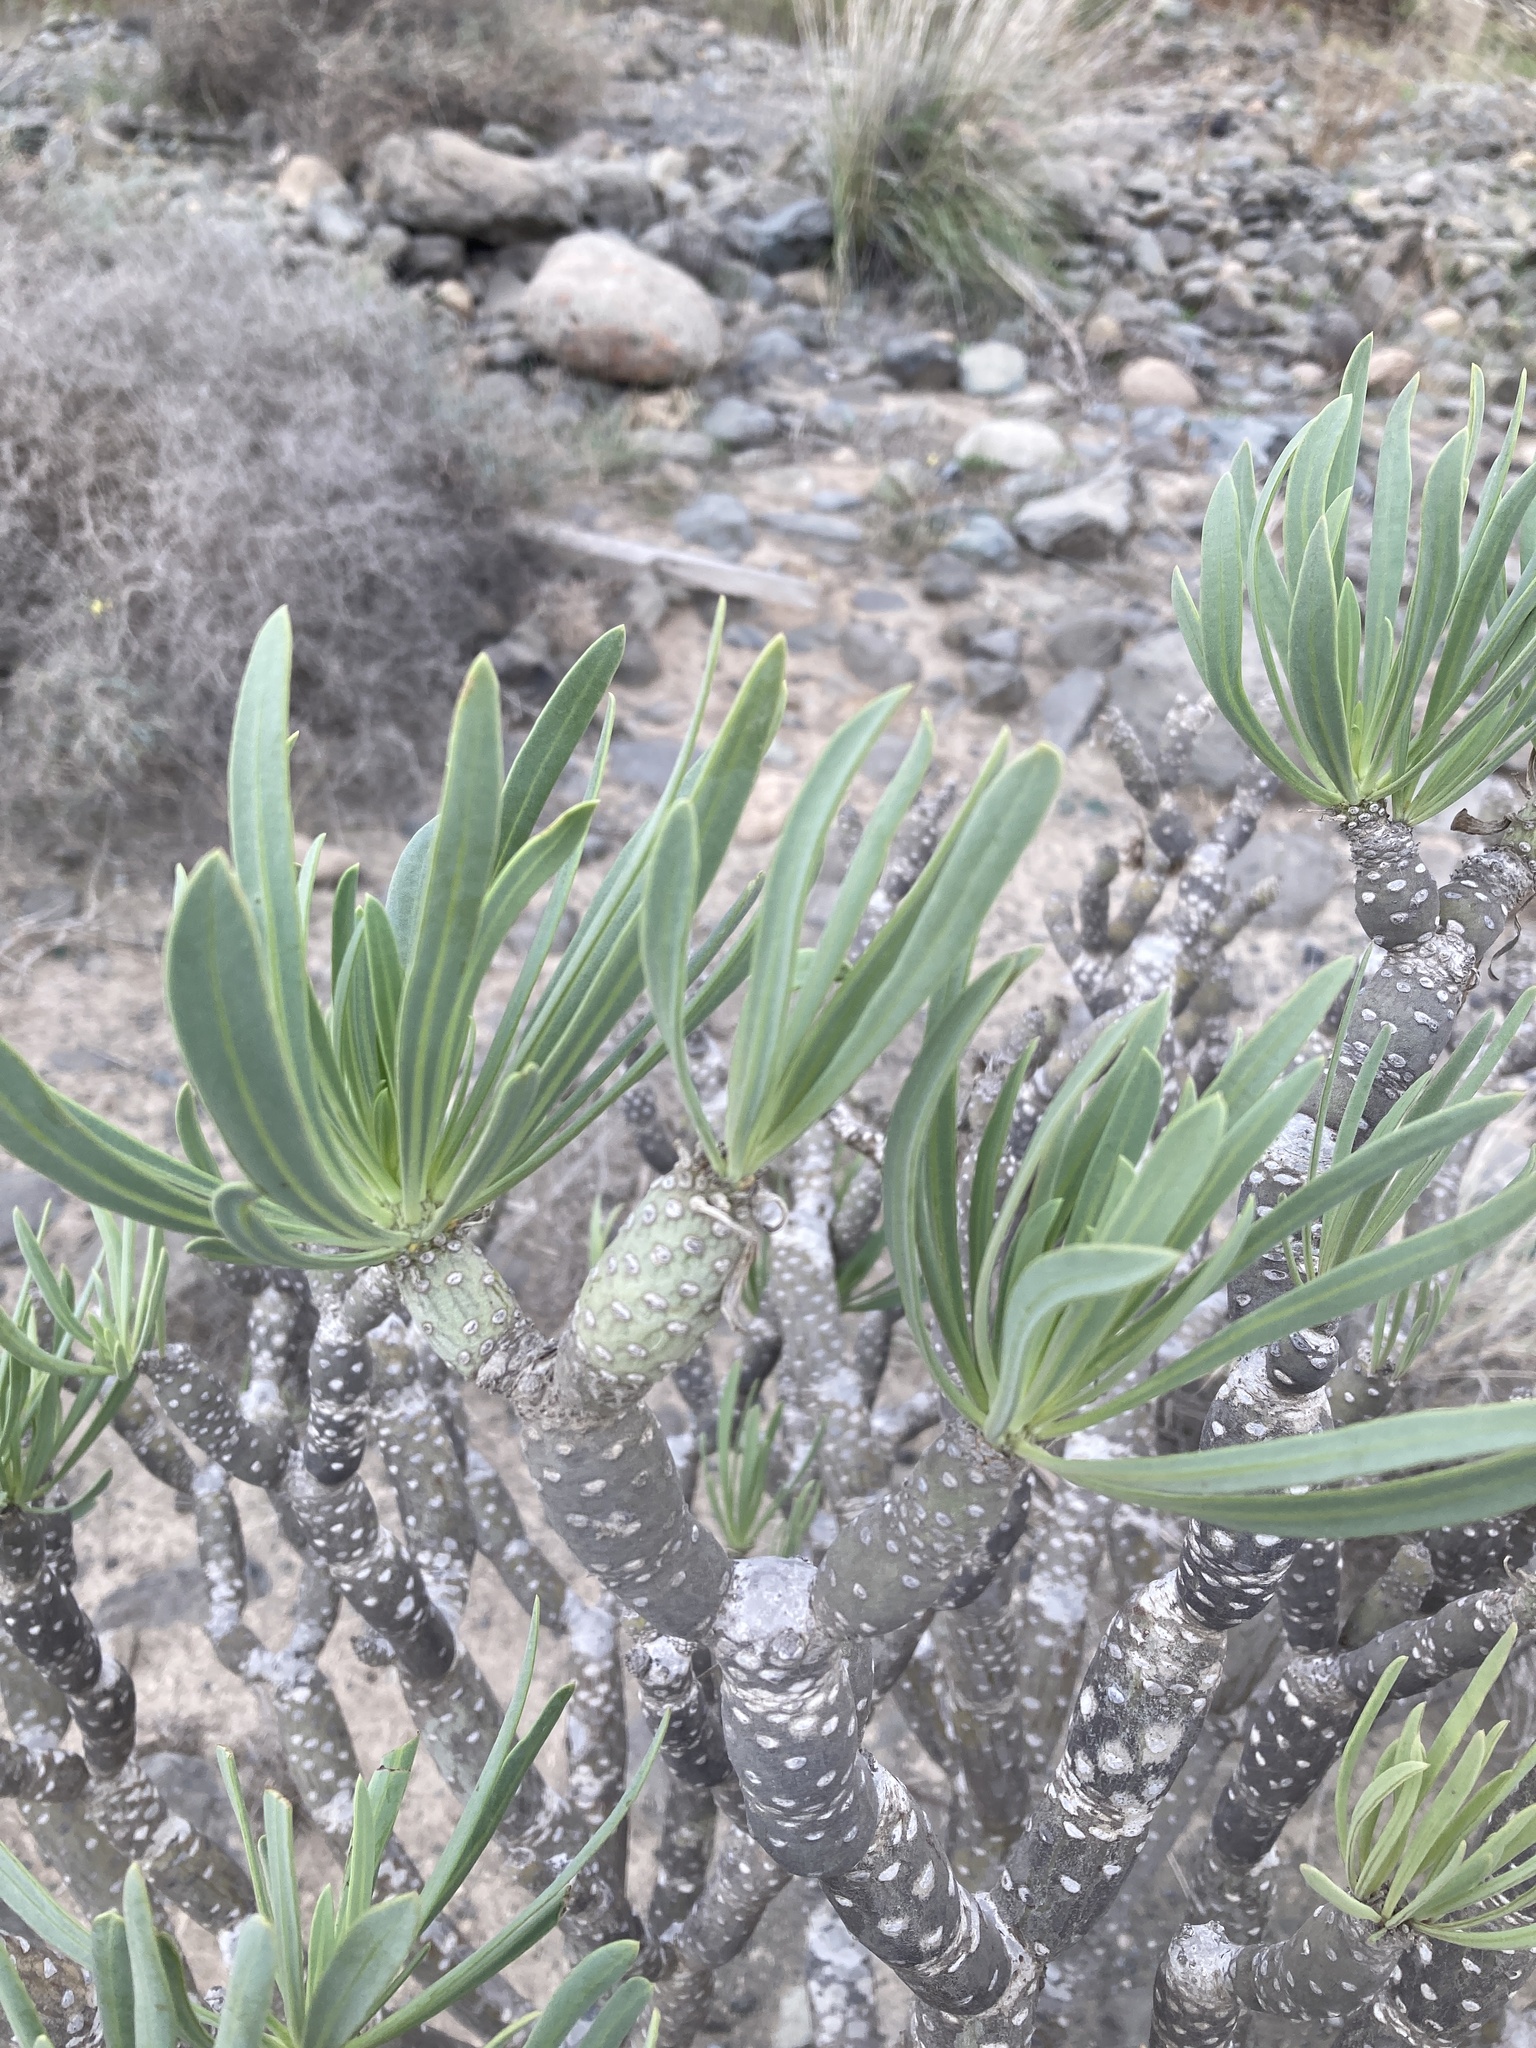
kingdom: Plantae
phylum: Tracheophyta
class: Magnoliopsida
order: Asterales
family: Asteraceae
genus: Kleinia
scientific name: Kleinia neriifolia
